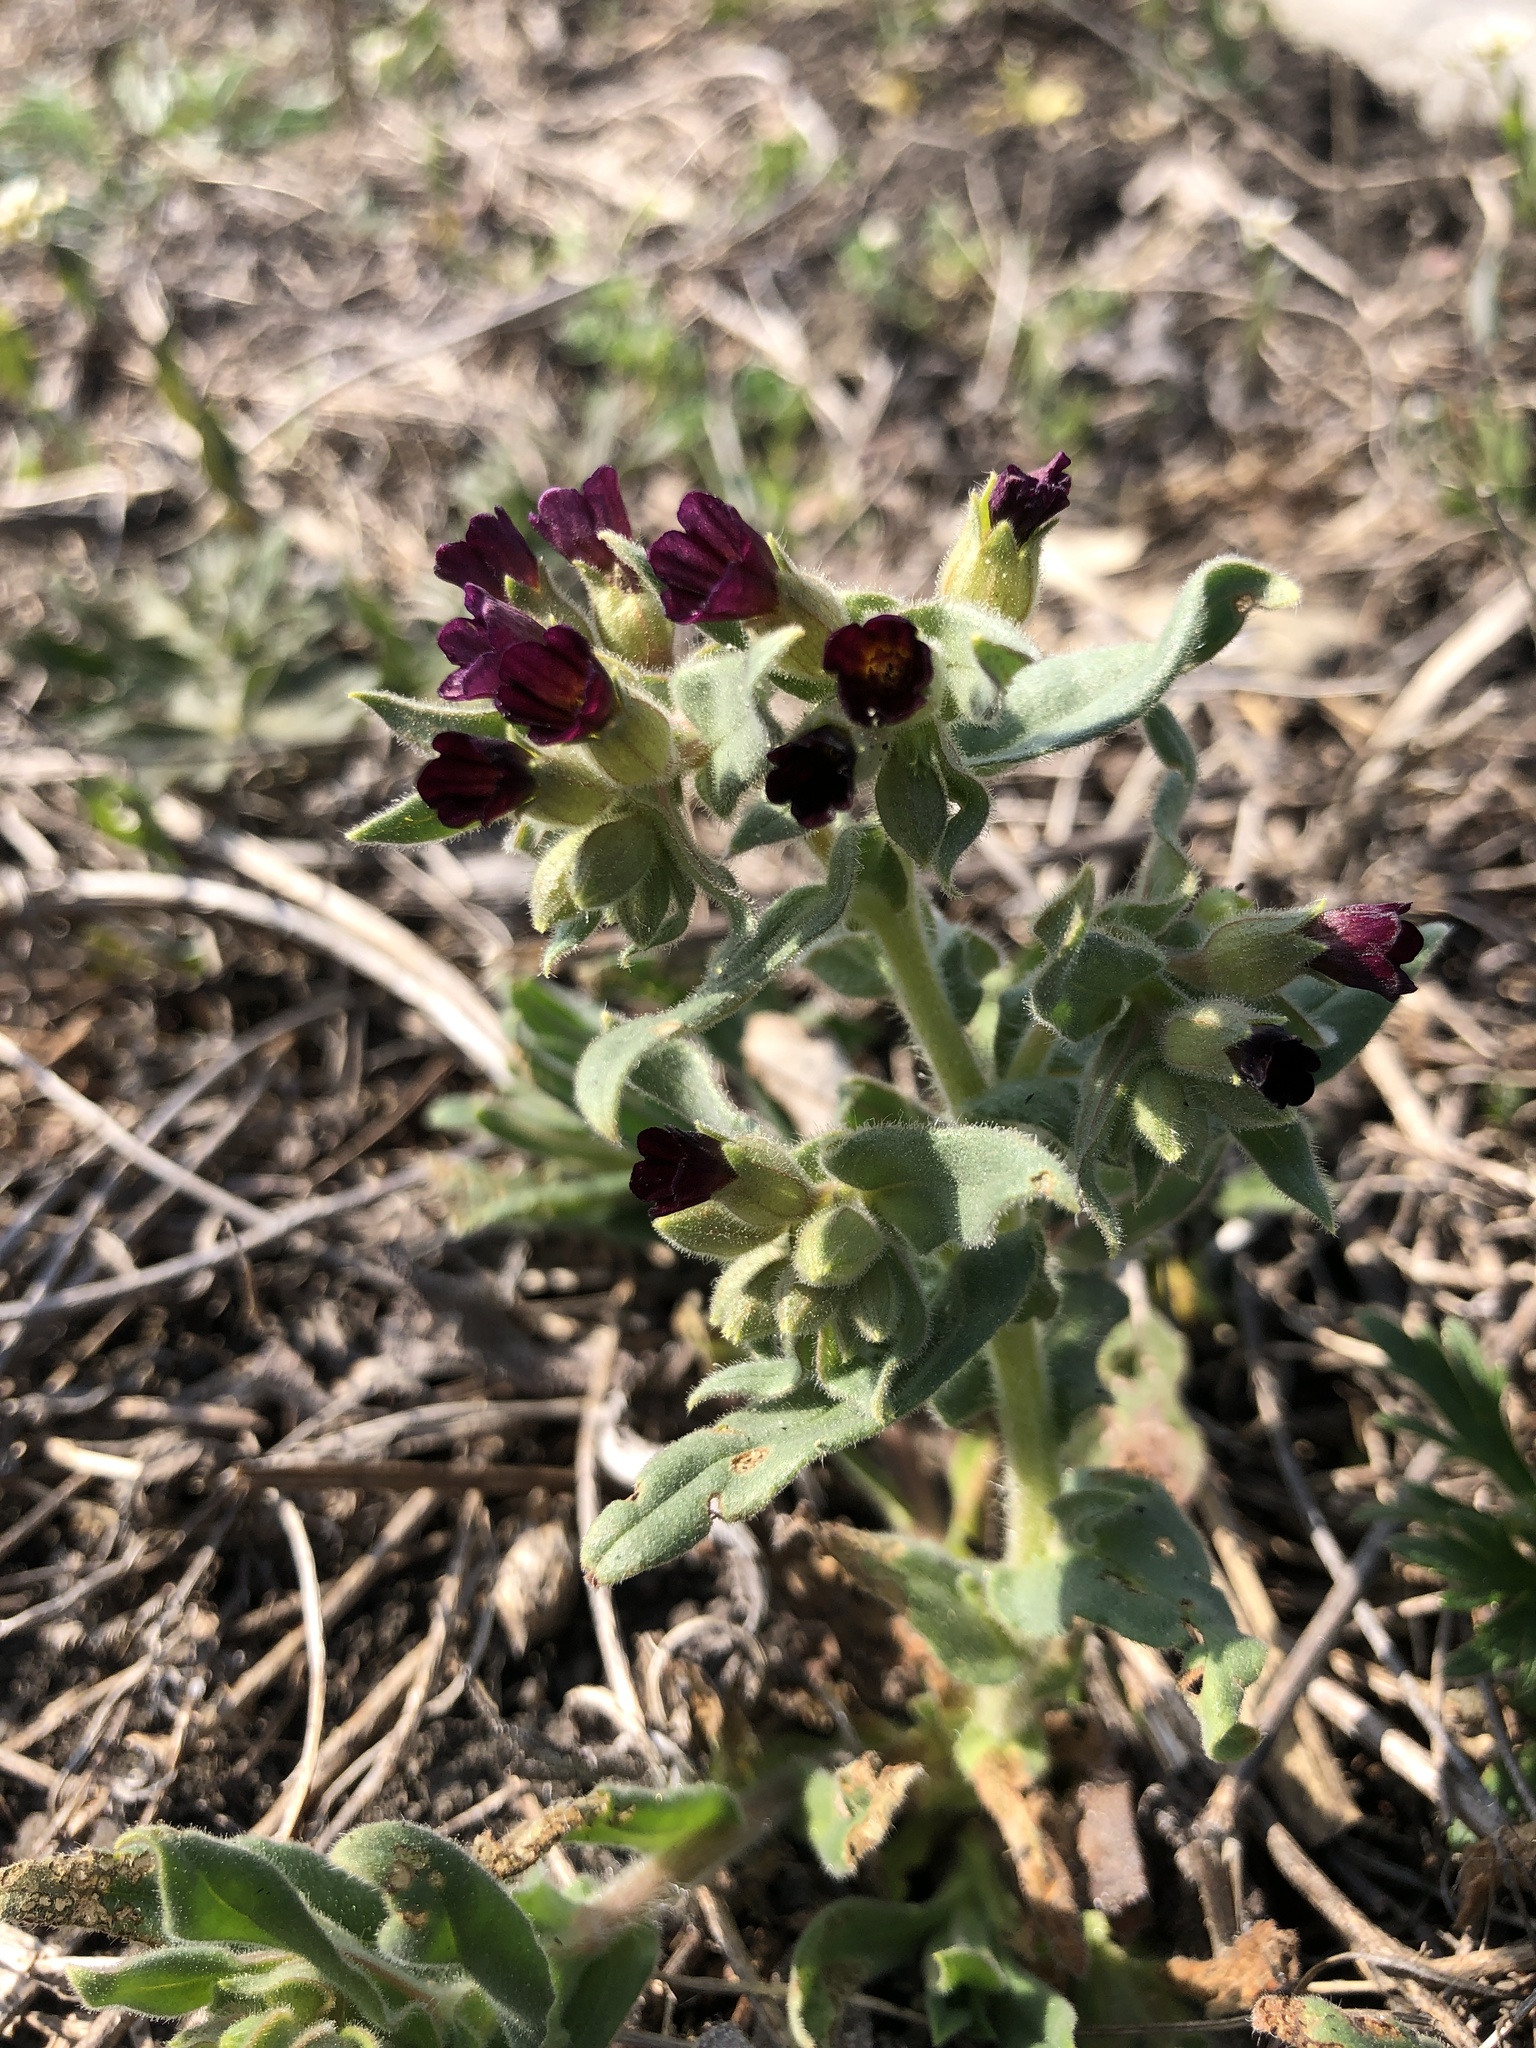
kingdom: Plantae
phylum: Tracheophyta
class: Magnoliopsida
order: Boraginales
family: Boraginaceae
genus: Nonea
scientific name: Nonea pulla
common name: Brown nonea
